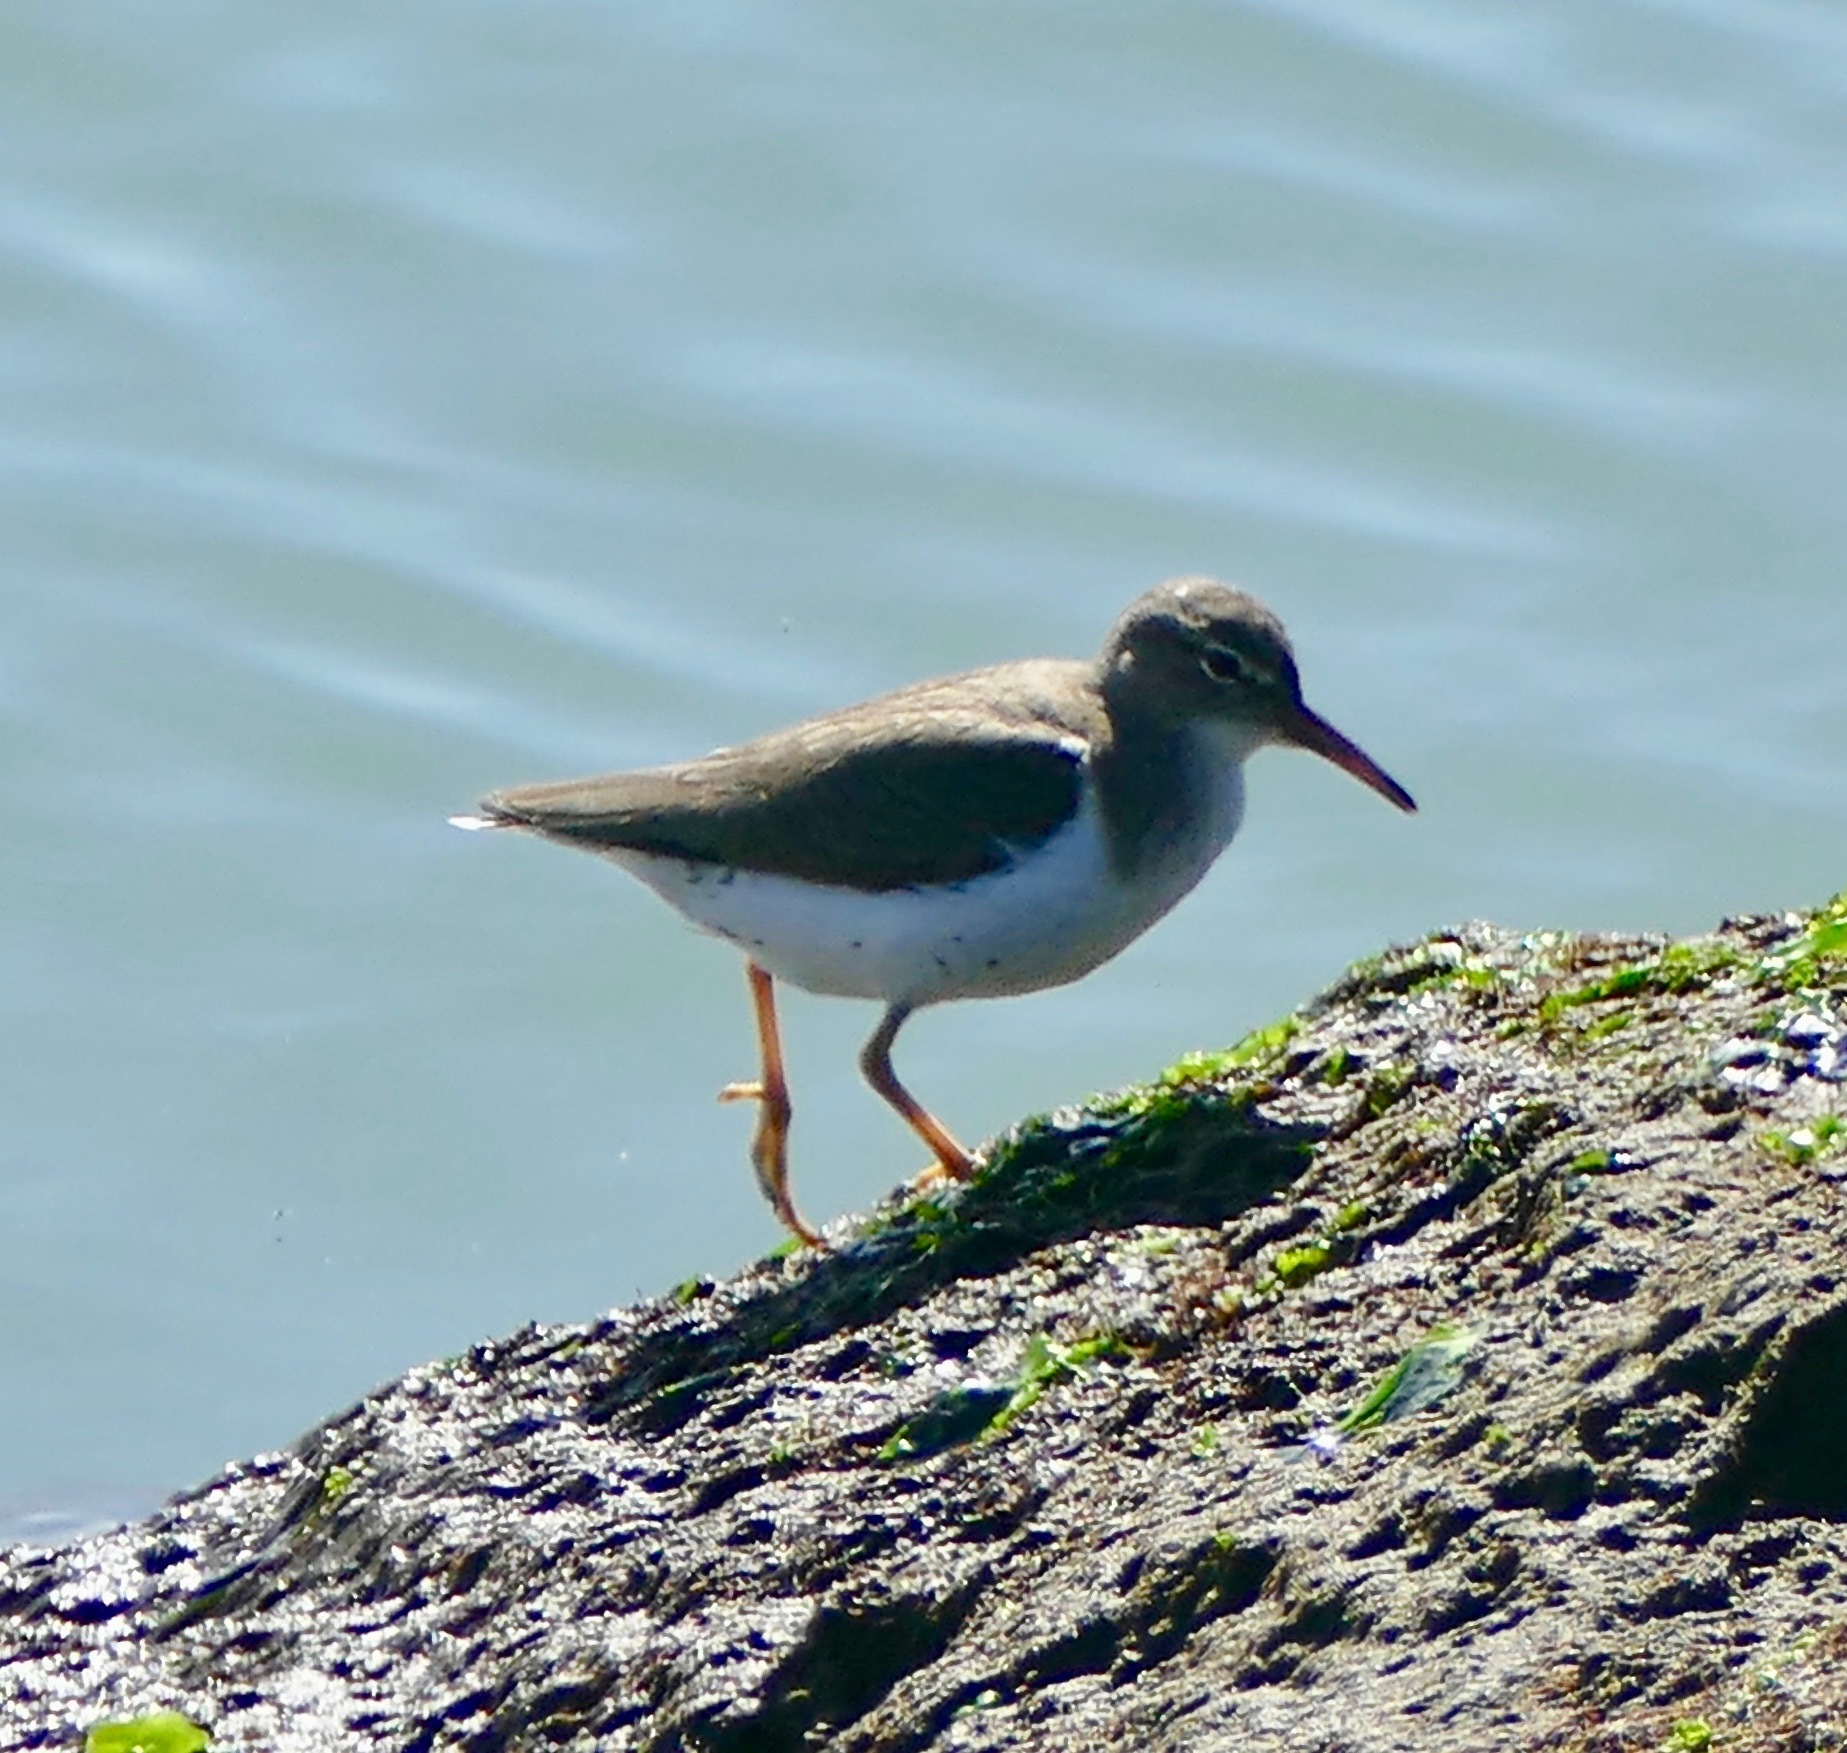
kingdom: Animalia
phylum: Chordata
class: Aves
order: Charadriiformes
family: Scolopacidae
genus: Actitis
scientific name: Actitis macularius
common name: Spotted sandpiper
